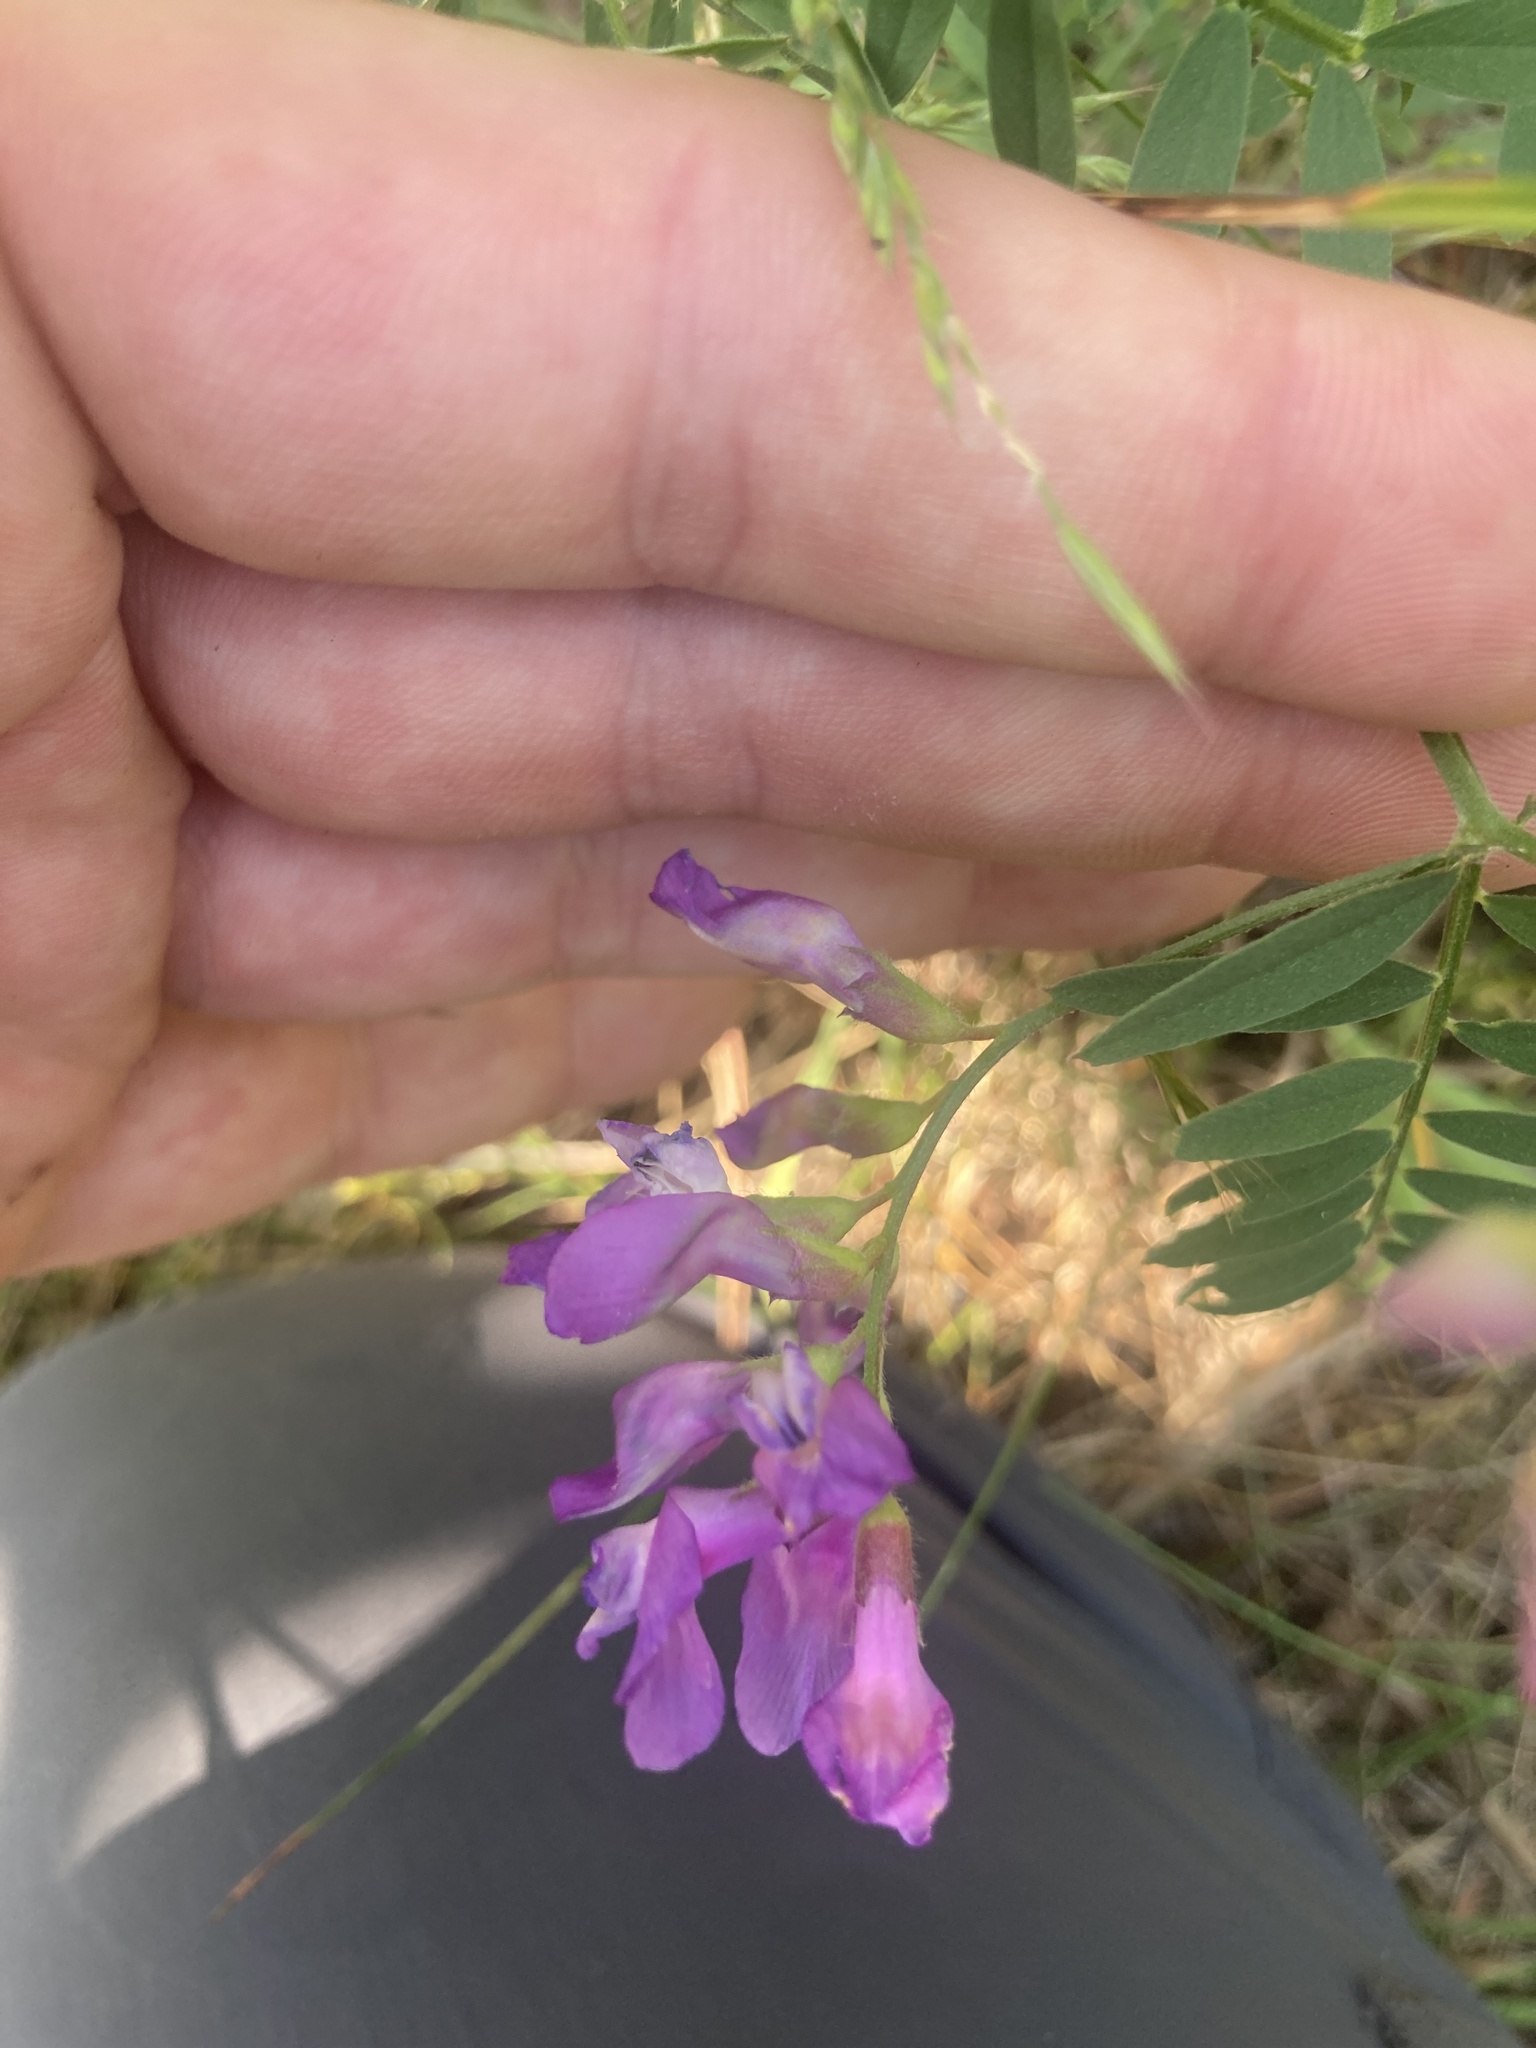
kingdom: Plantae
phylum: Tracheophyta
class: Magnoliopsida
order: Fabales
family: Fabaceae
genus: Vicia
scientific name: Vicia americana
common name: American vetch
